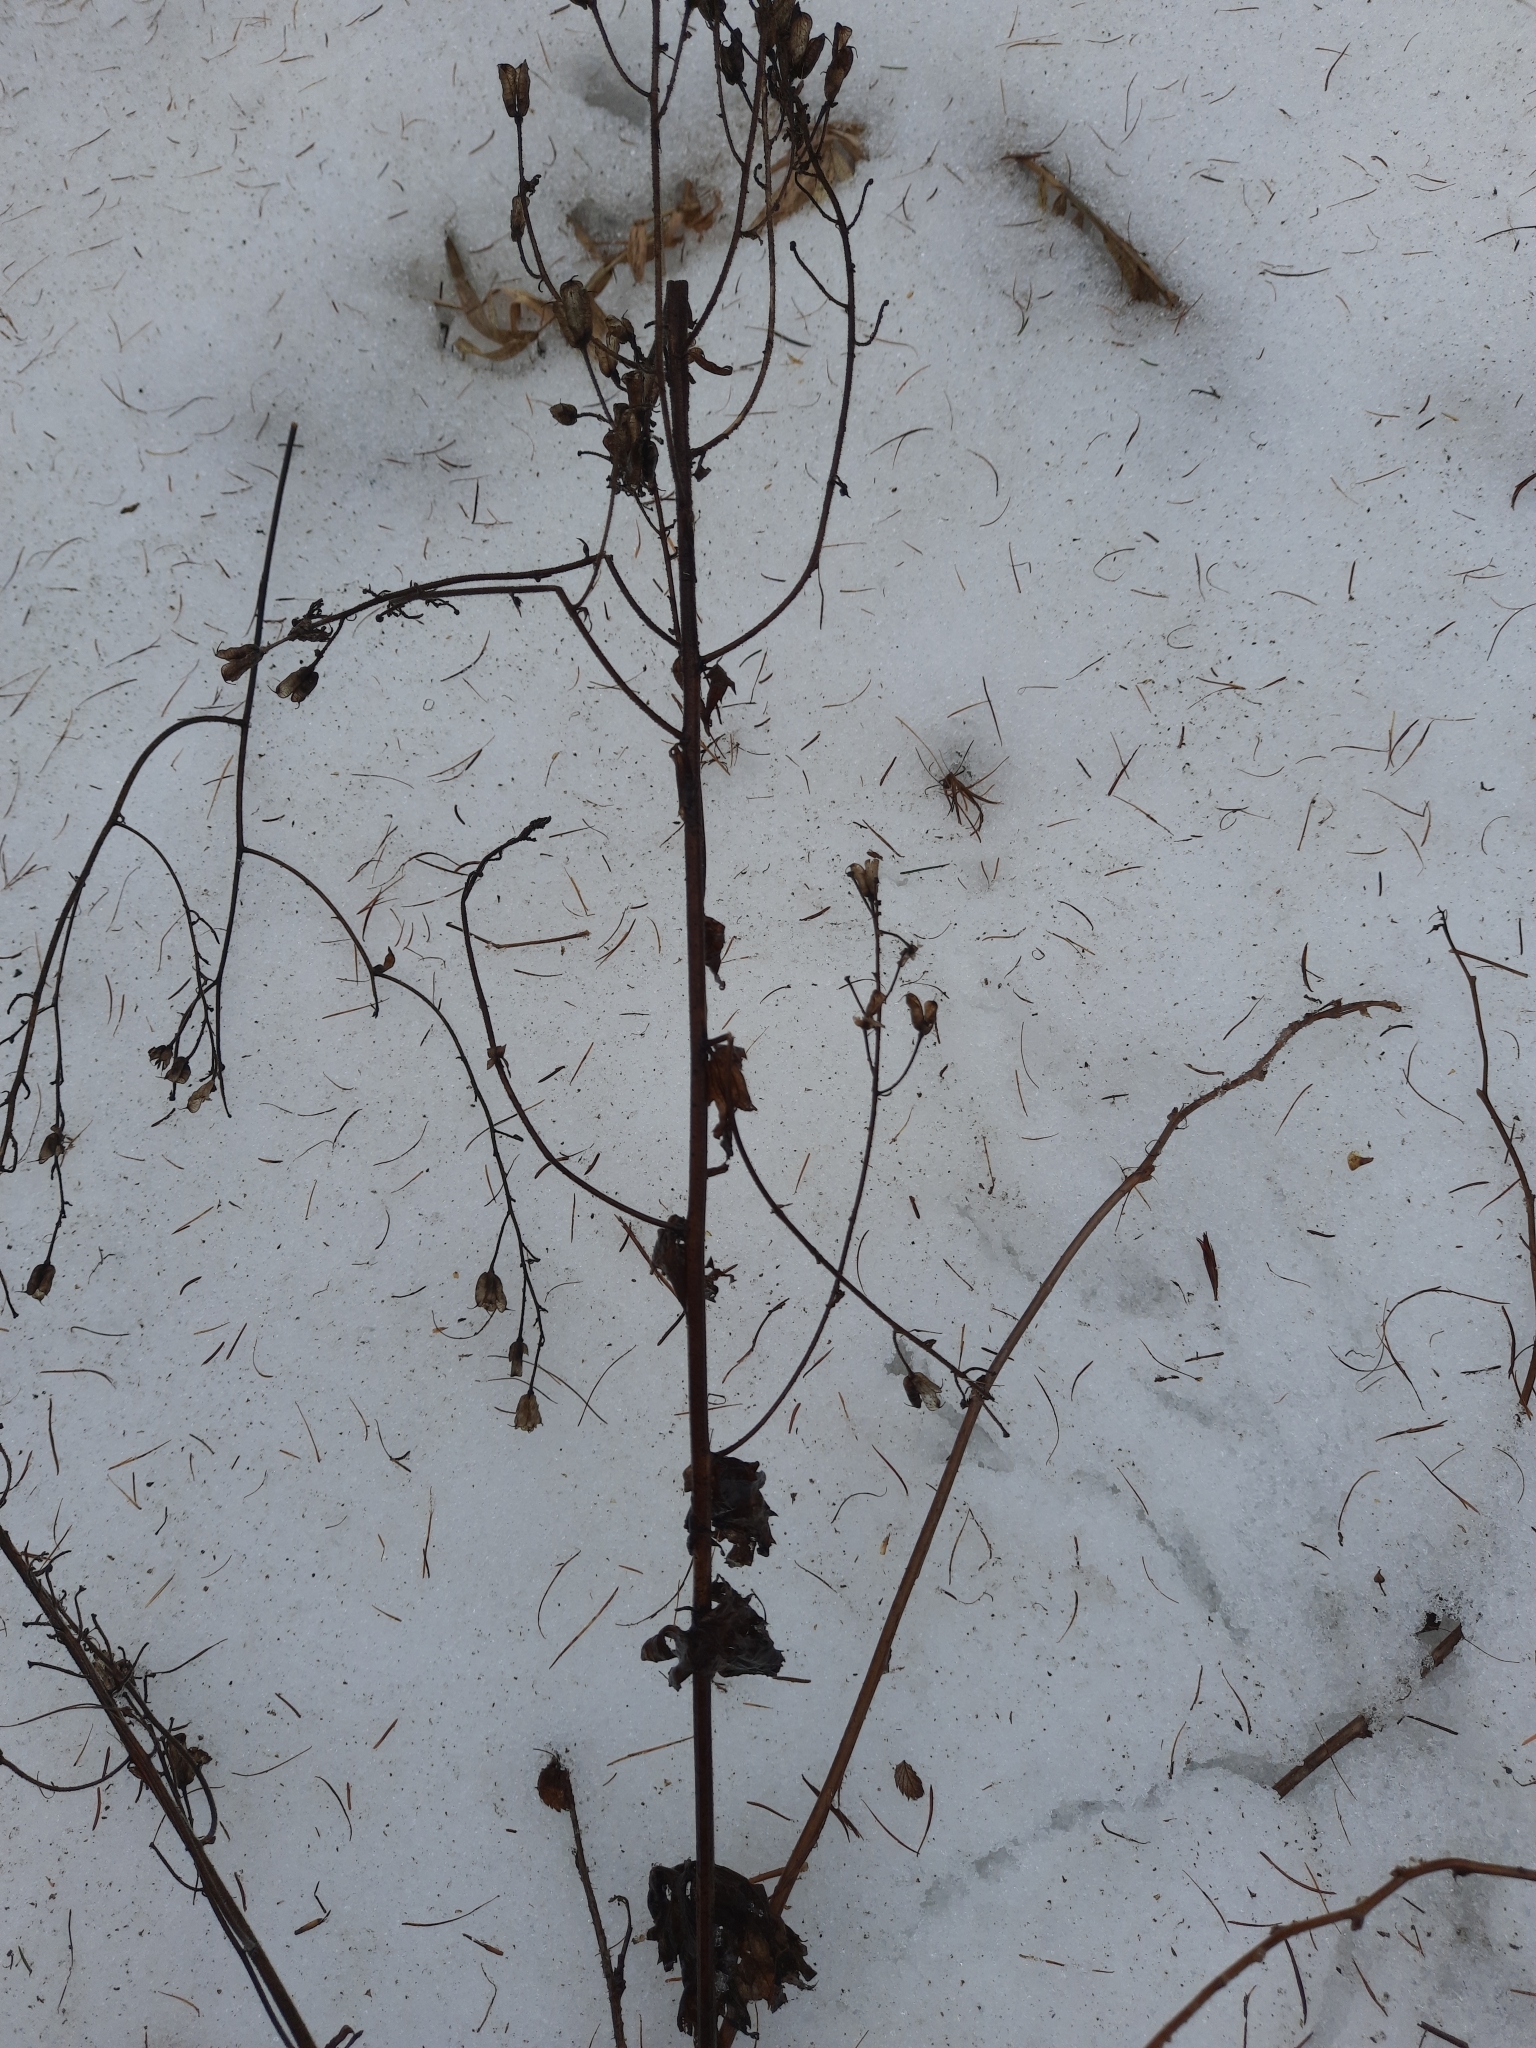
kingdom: Plantae
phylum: Tracheophyta
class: Magnoliopsida
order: Ranunculales
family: Ranunculaceae
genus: Aconitum
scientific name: Aconitum septentrionale
